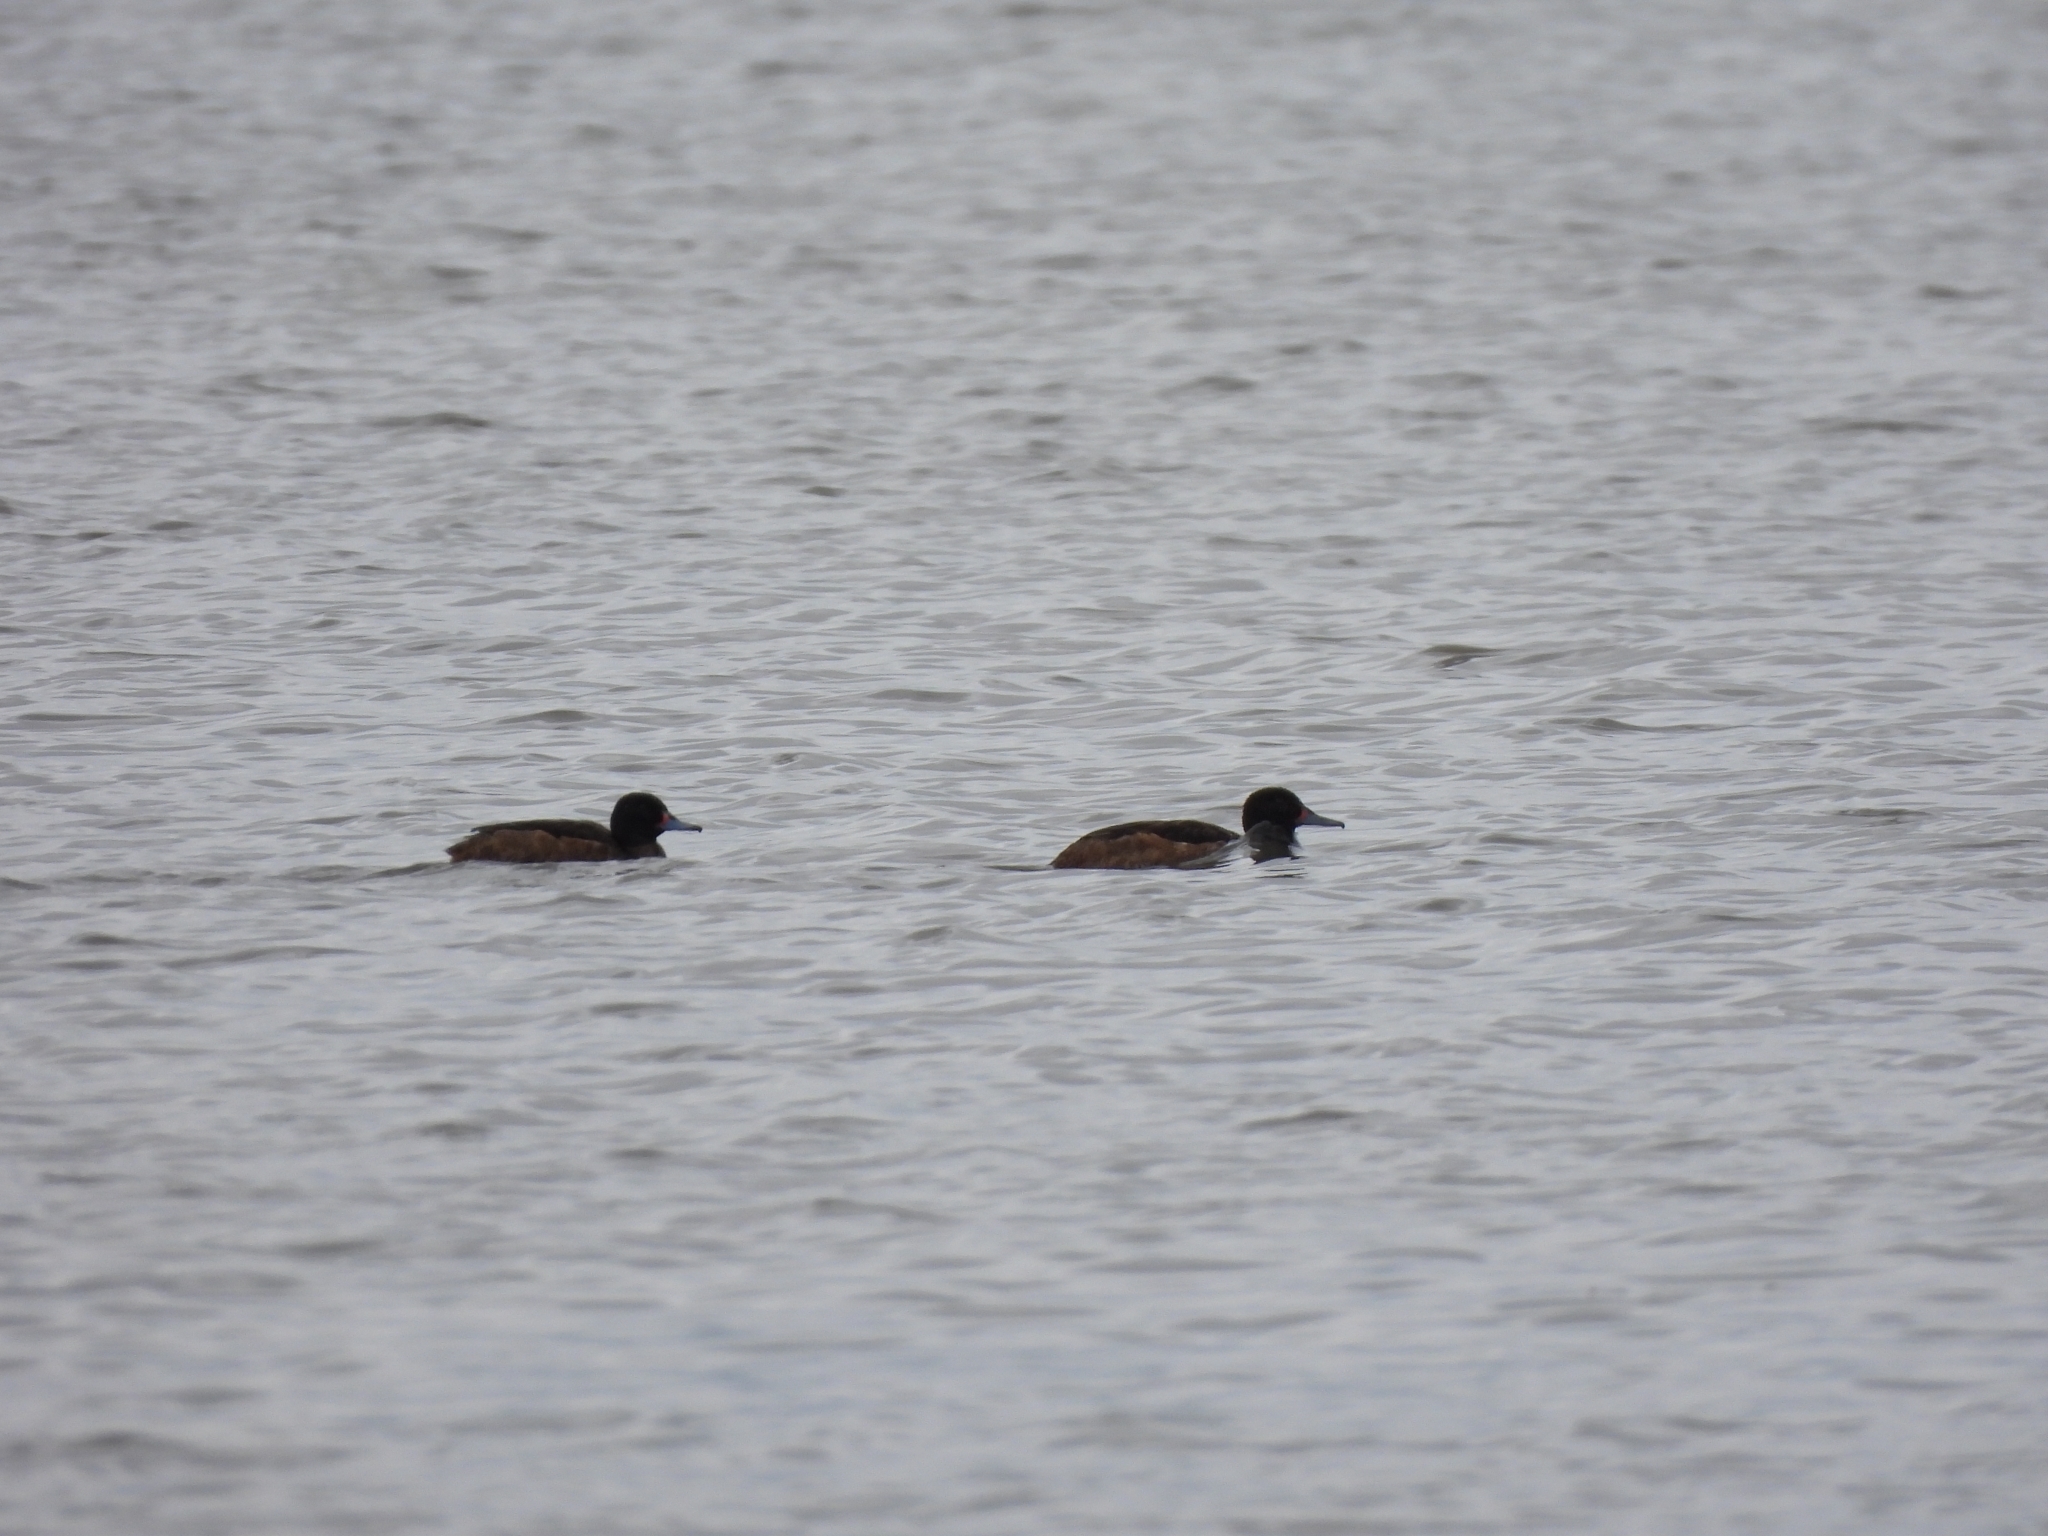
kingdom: Animalia
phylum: Chordata
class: Aves
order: Anseriformes
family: Anatidae
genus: Heteronetta
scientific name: Heteronetta atricapilla
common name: Black-headed duck
